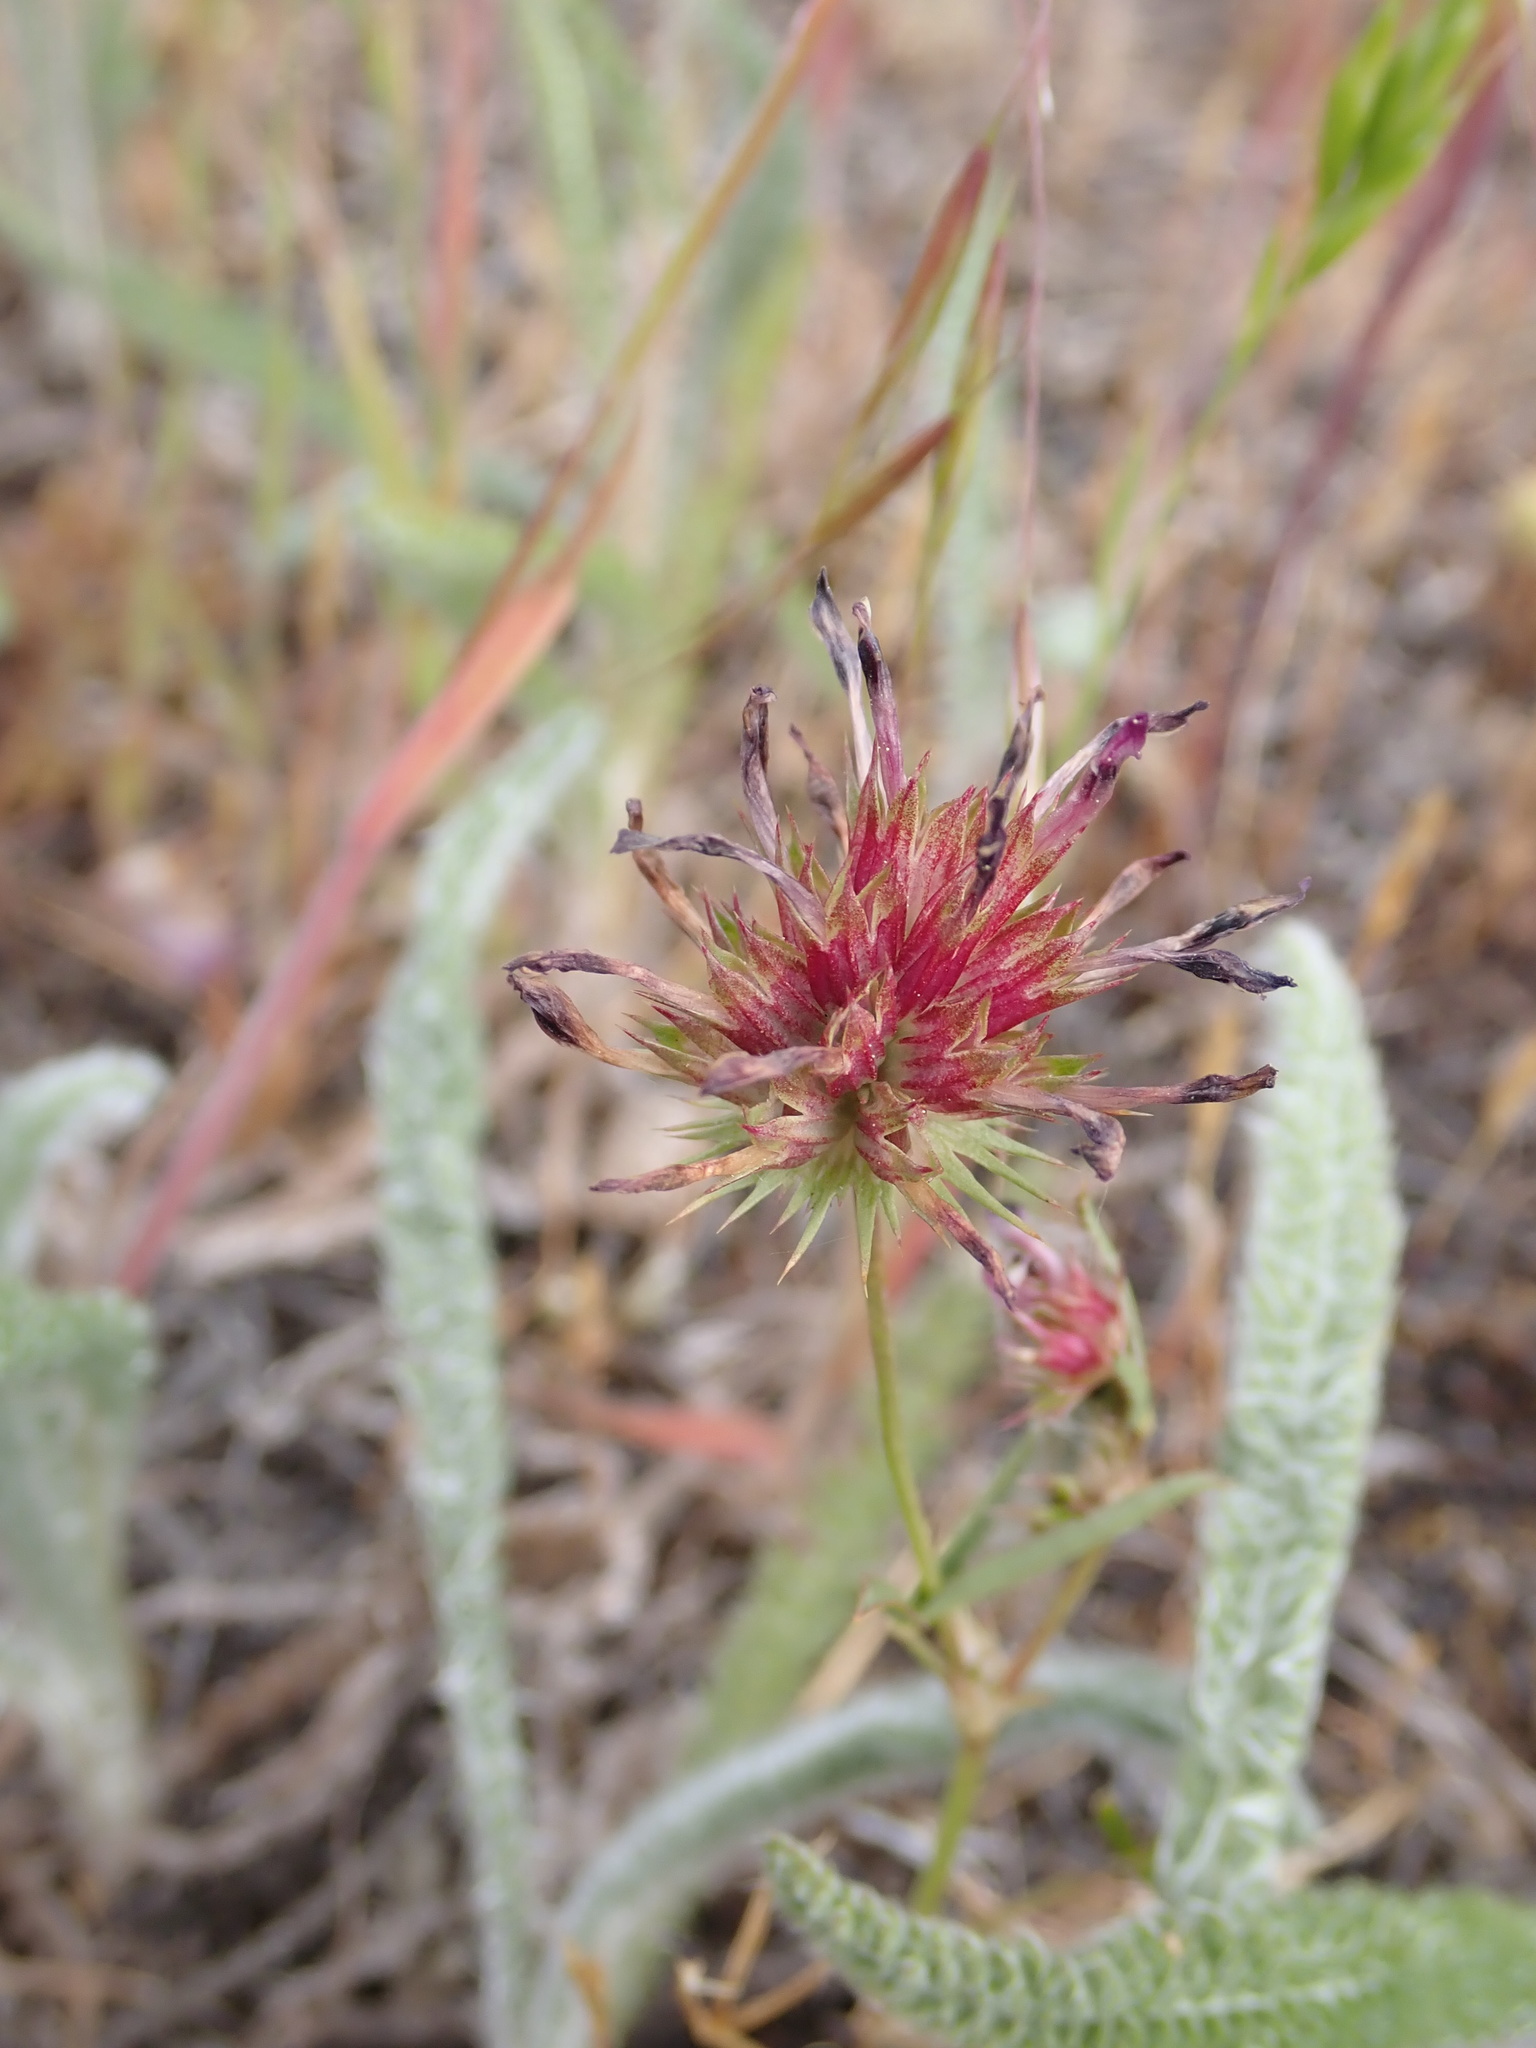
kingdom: Plantae
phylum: Tracheophyta
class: Magnoliopsida
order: Fabales
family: Fabaceae
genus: Trifolium
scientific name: Trifolium willdenovii
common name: Tomcat clover
